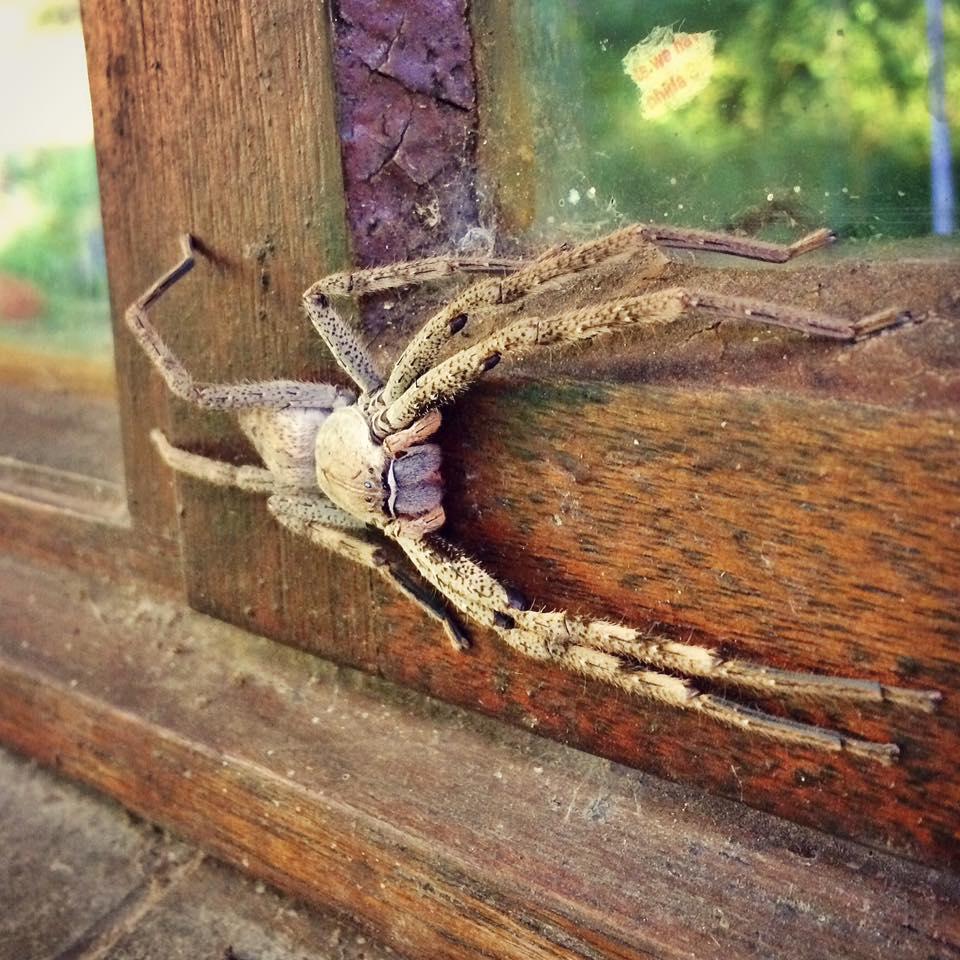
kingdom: Animalia
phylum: Arthropoda
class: Arachnida
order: Araneae
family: Sparassidae
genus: Palystes
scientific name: Palystes superciliosus
